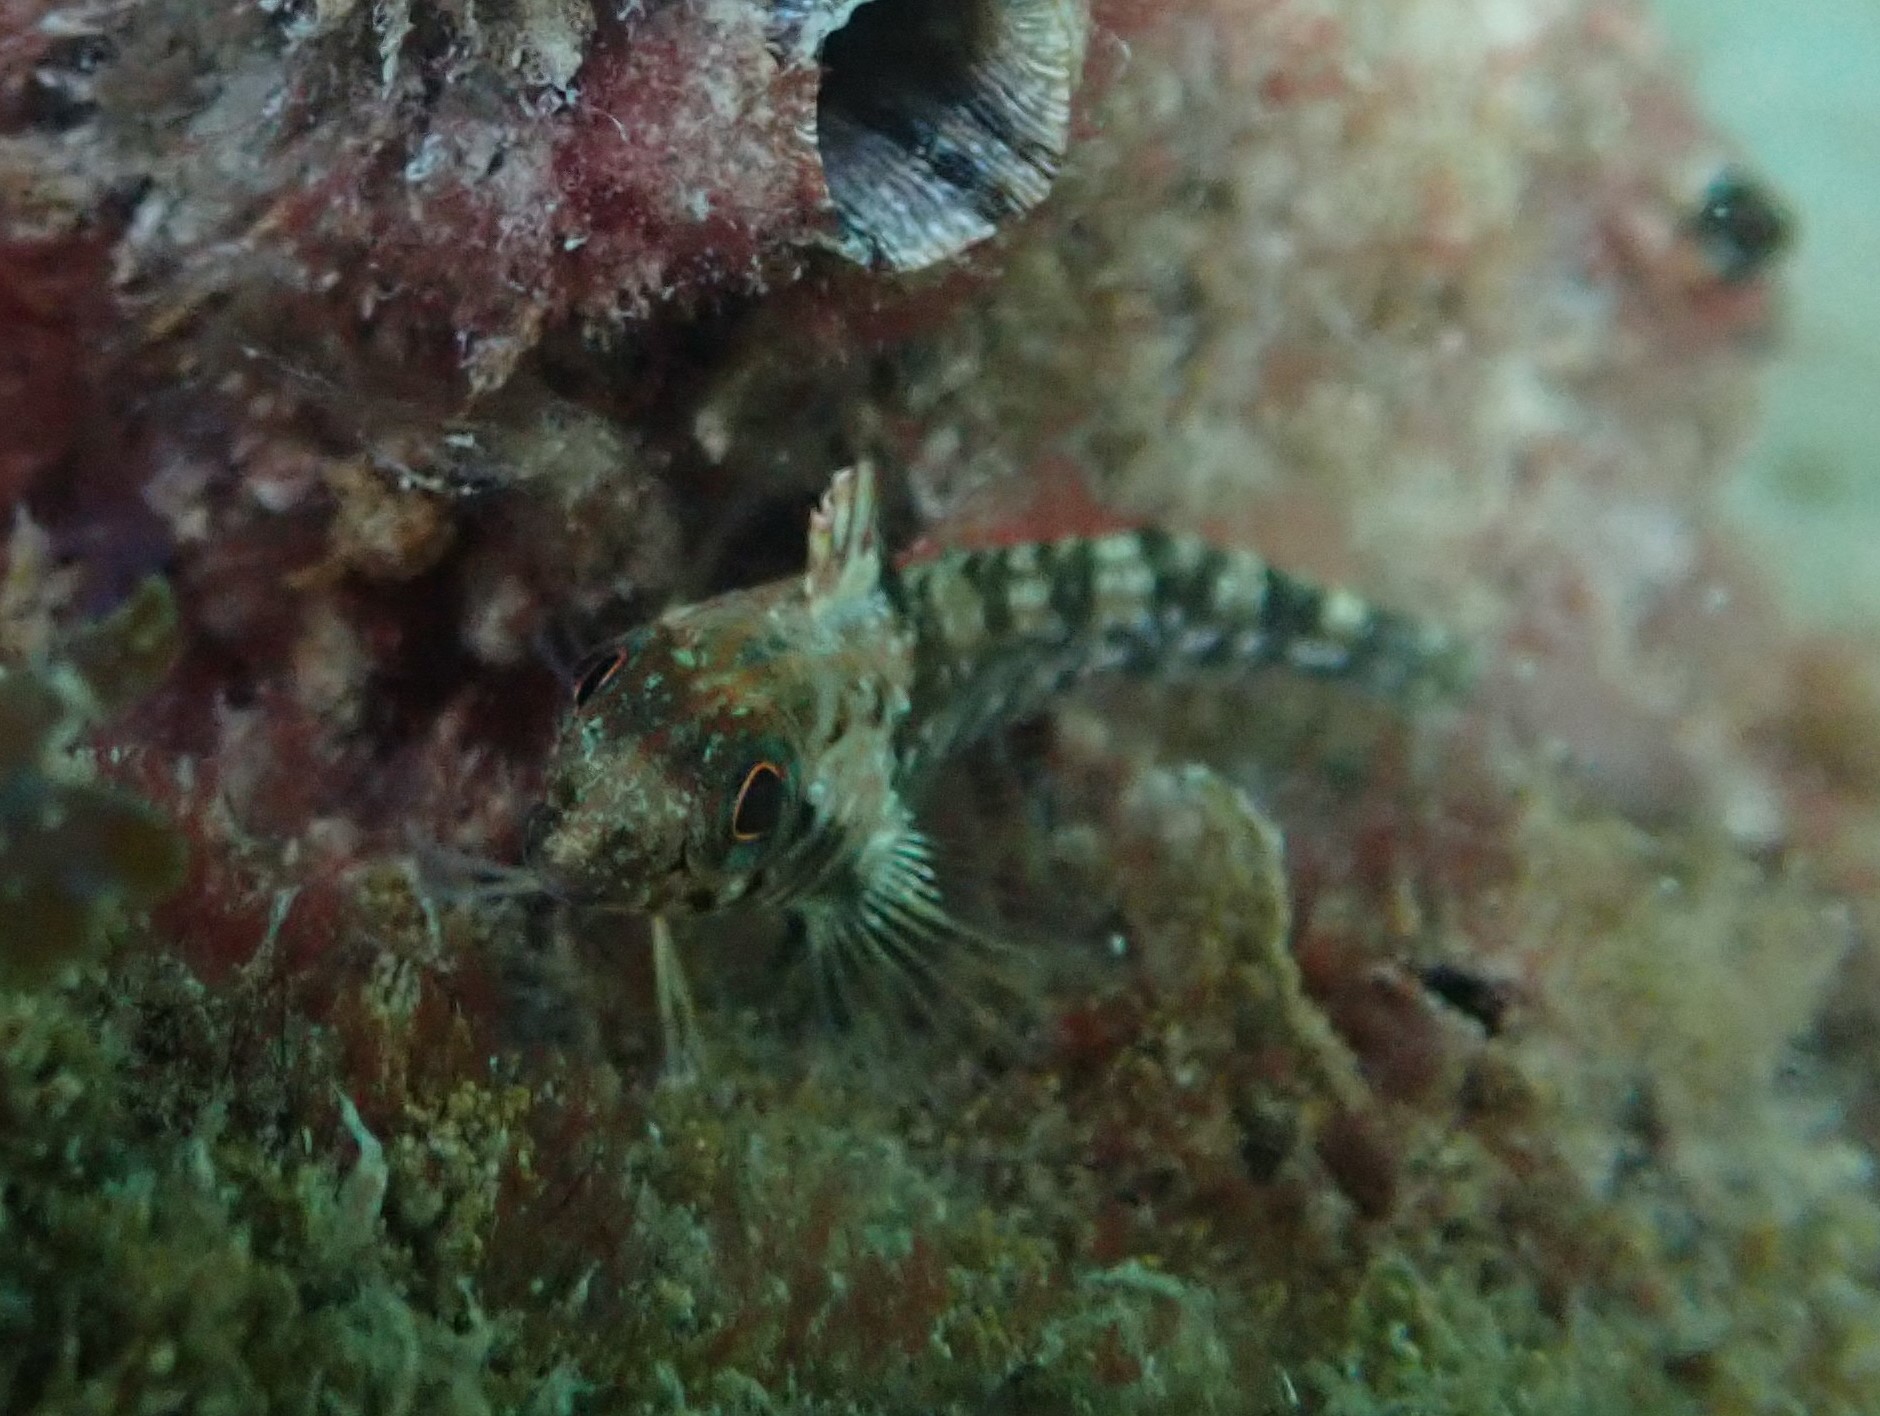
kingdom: Animalia
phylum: Chordata
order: Perciformes
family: Tripterygiidae
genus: Forsterygion
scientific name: Forsterygion lapillum
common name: Common triplefin
